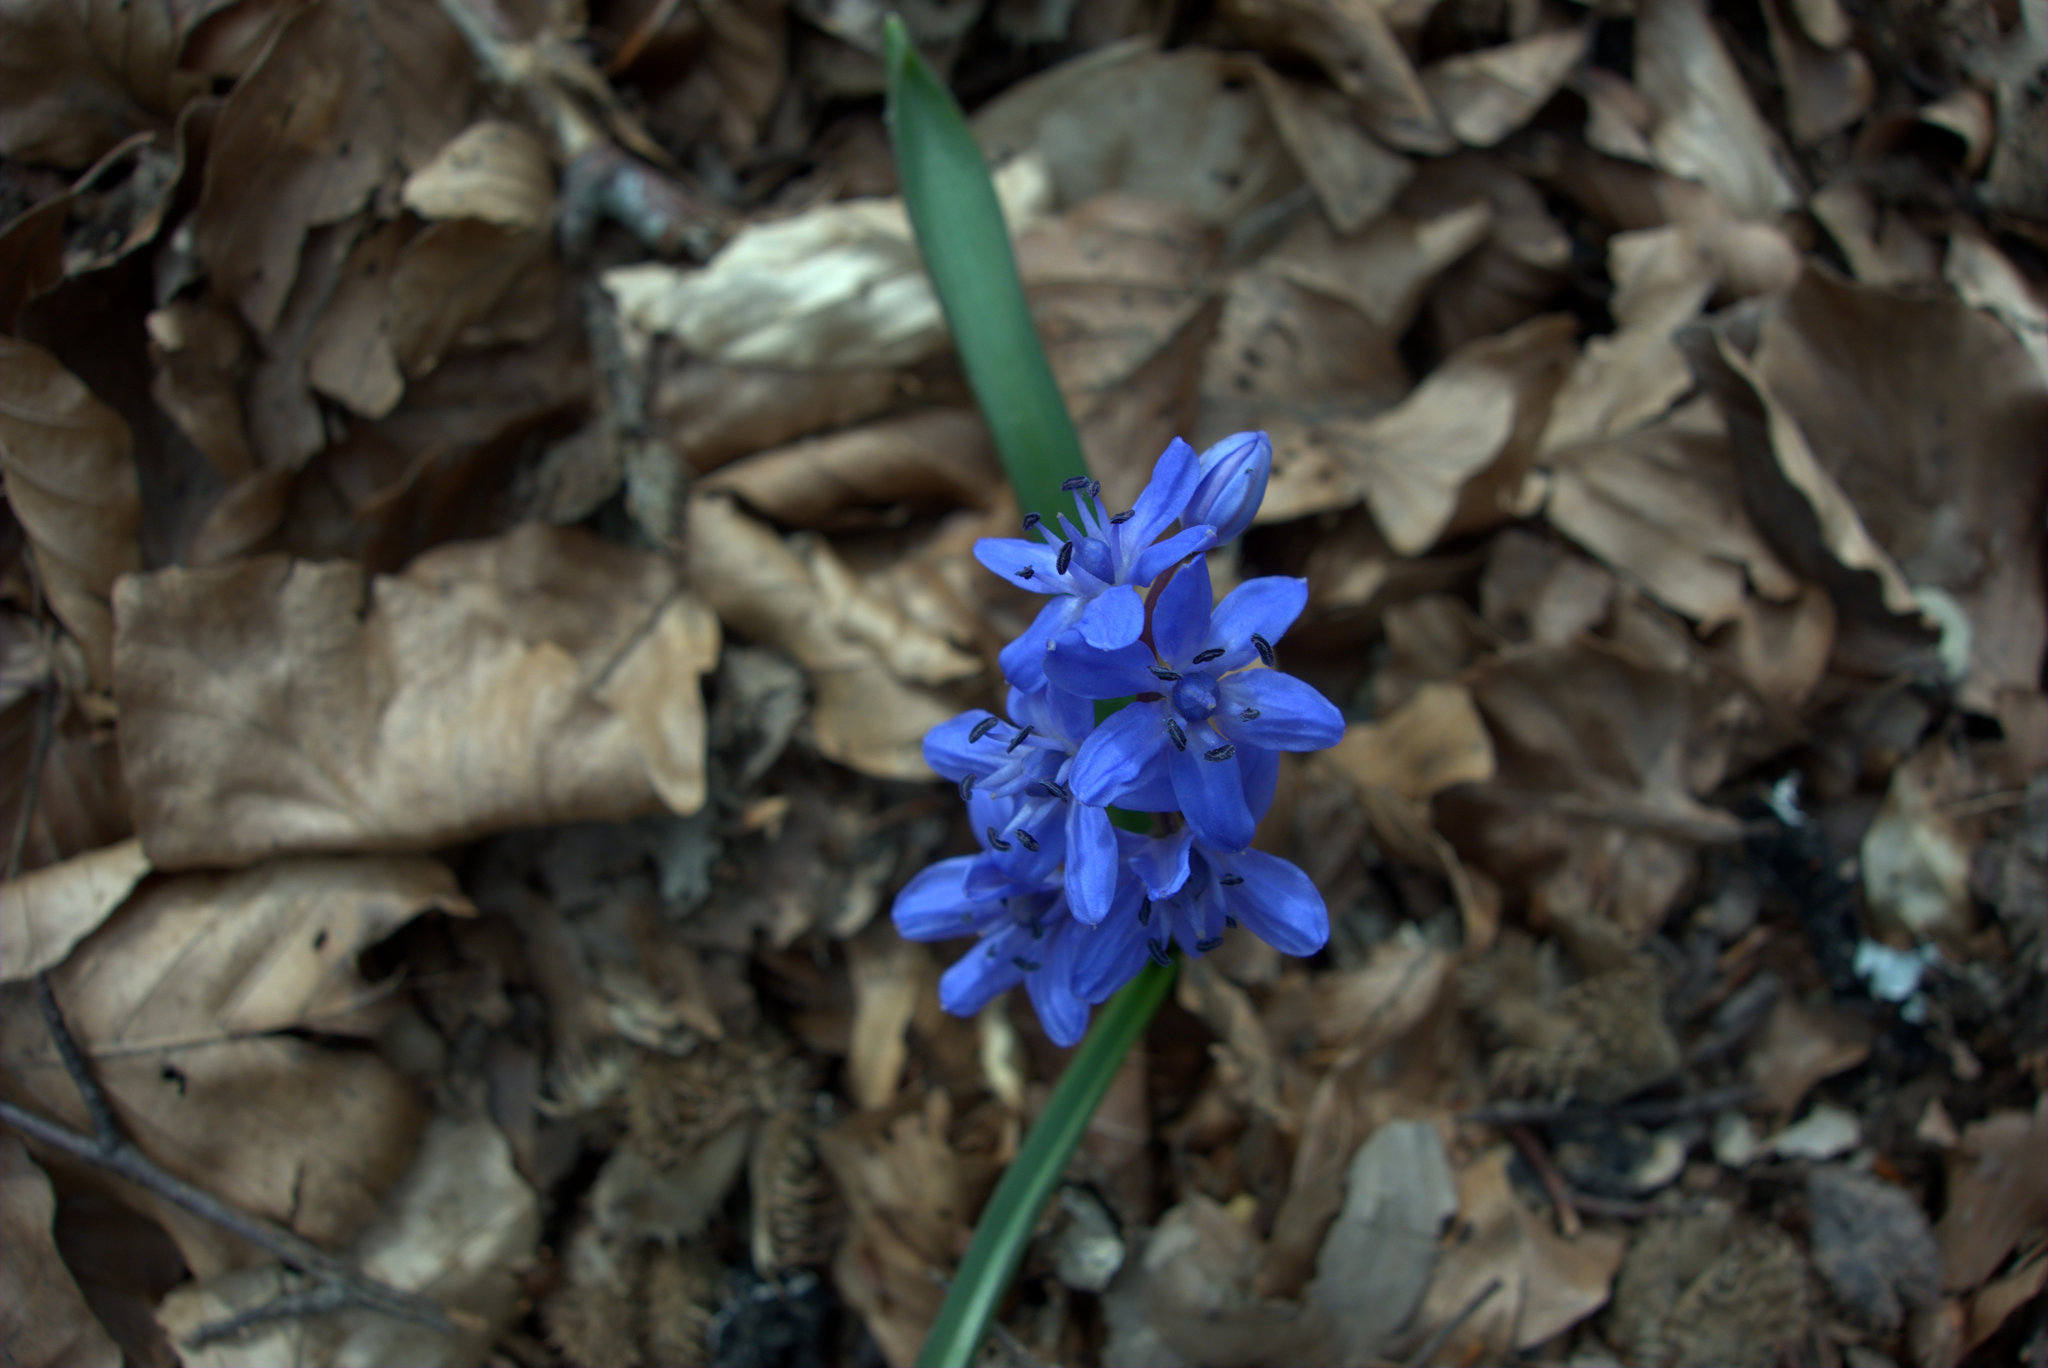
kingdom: Plantae
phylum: Tracheophyta
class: Liliopsida
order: Asparagales
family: Asparagaceae
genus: Scilla
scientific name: Scilla bifolia
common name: Alpine squill
